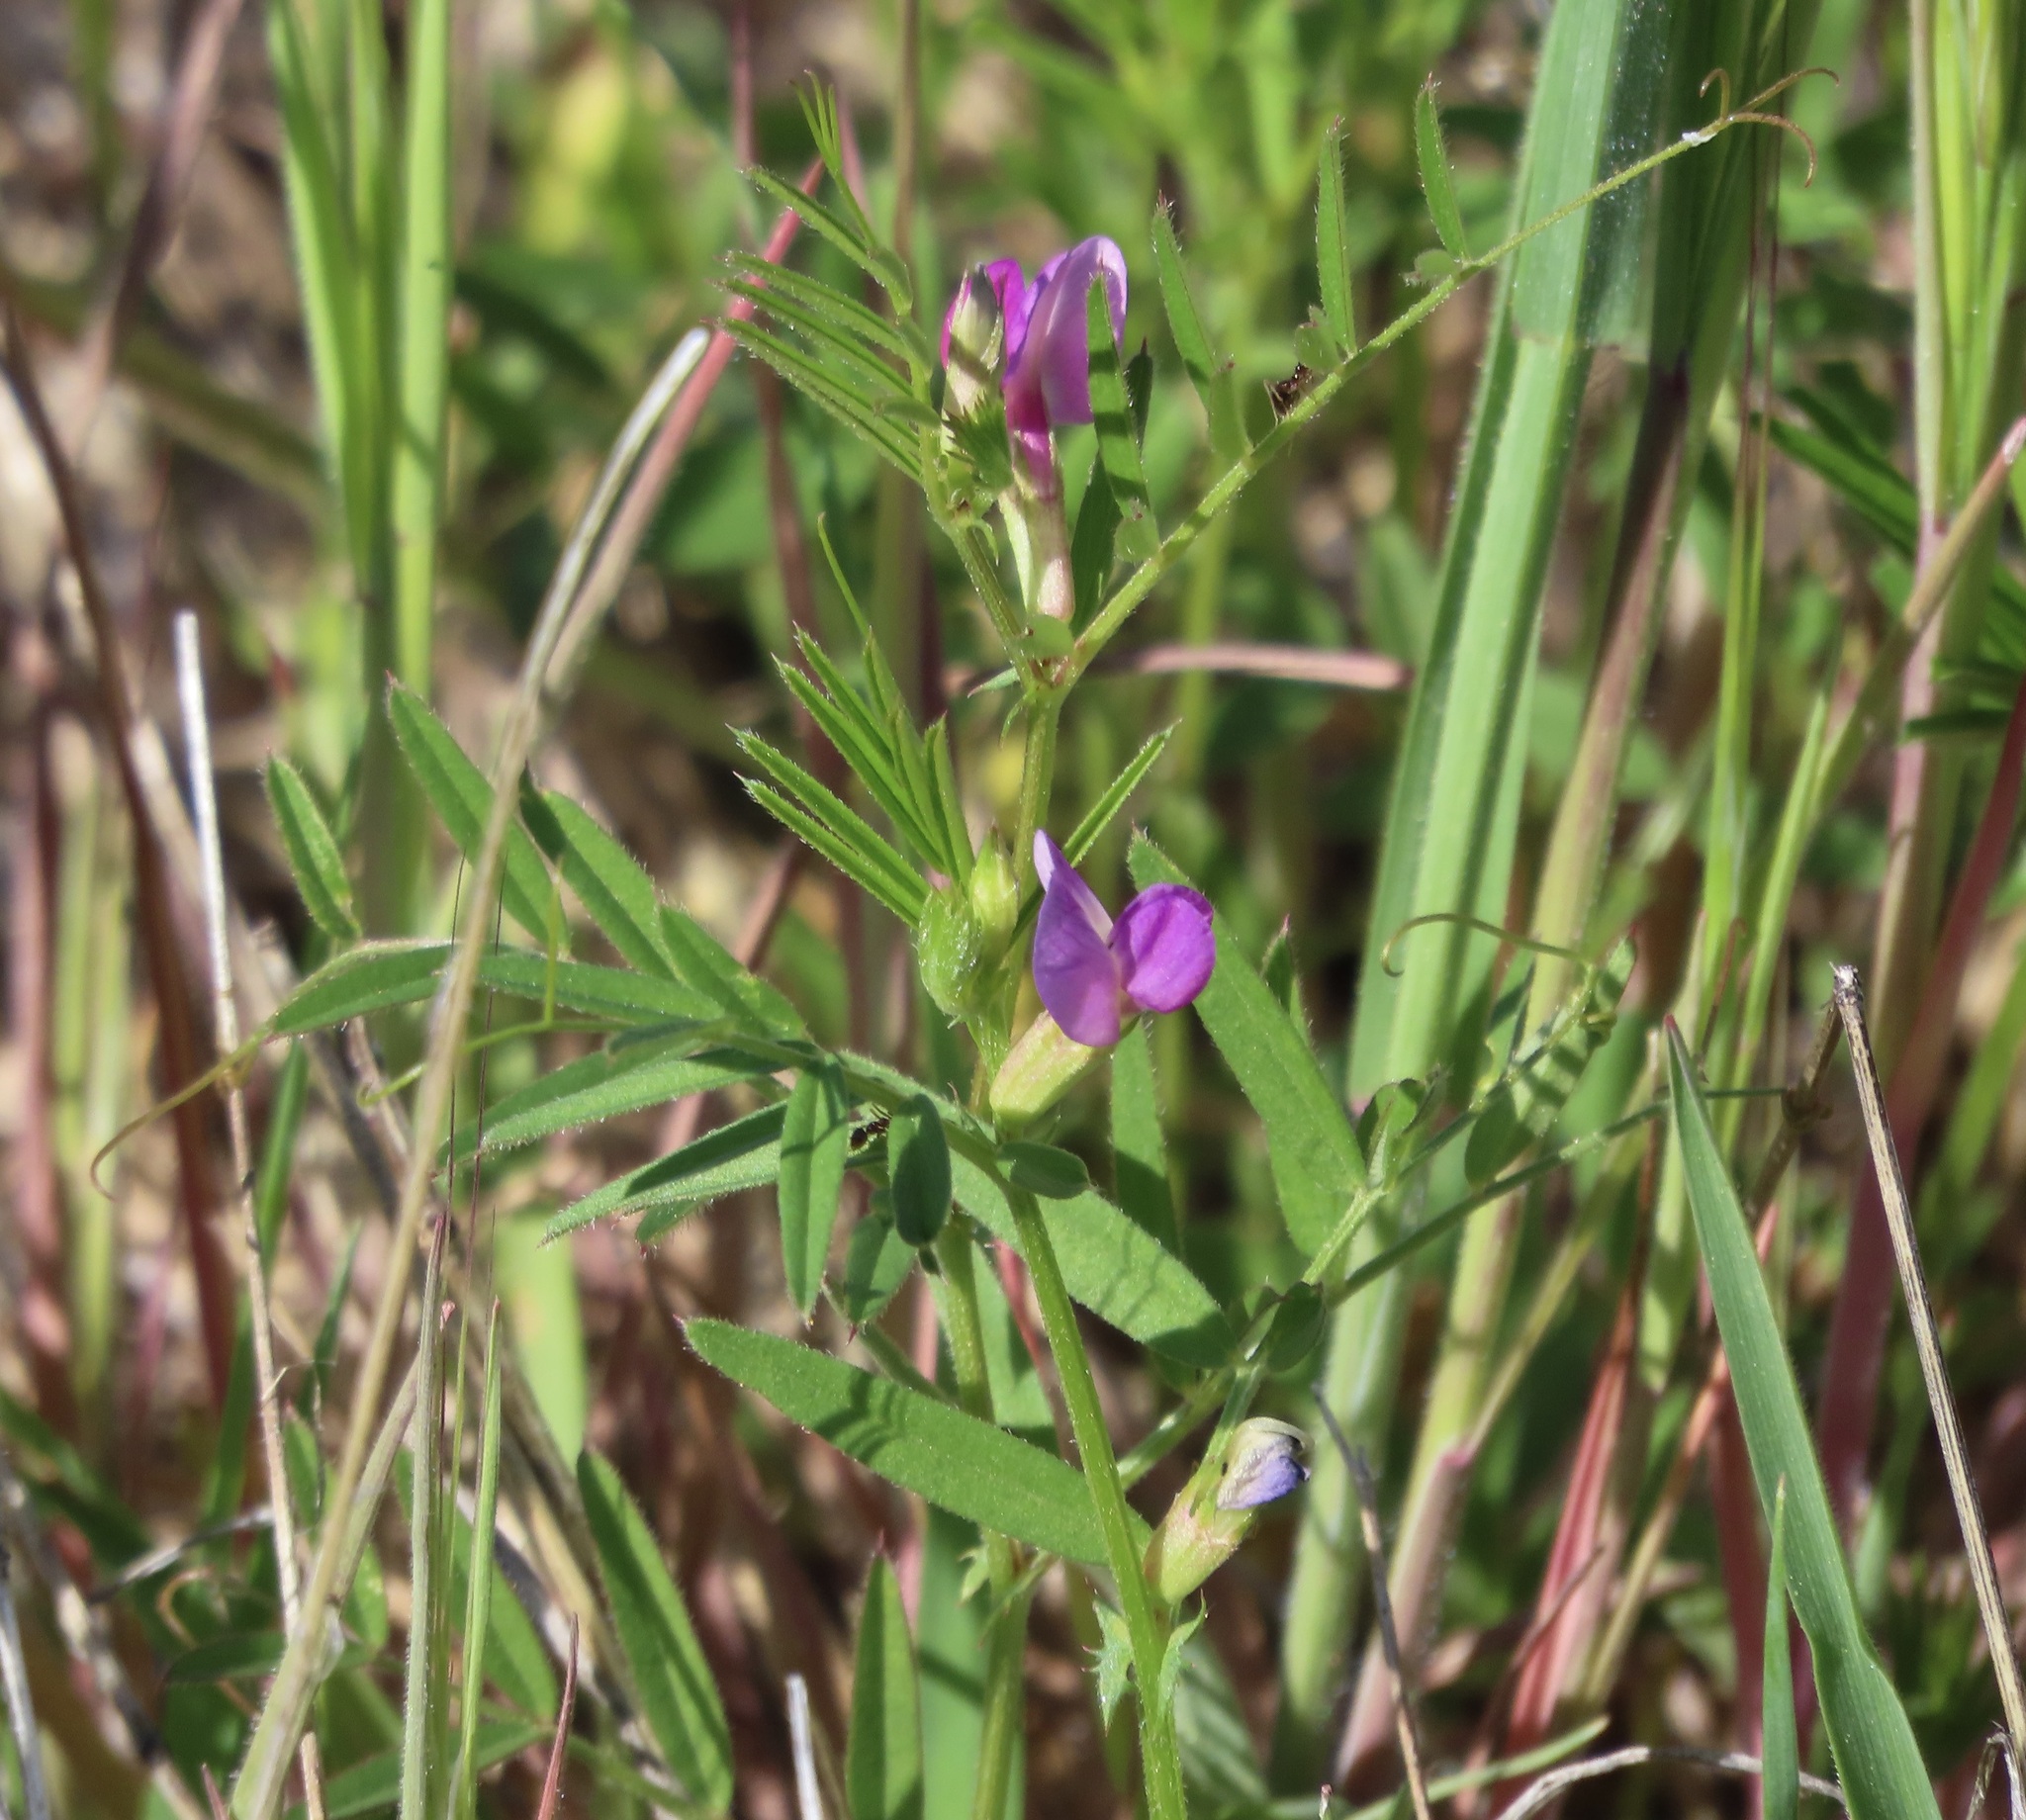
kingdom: Plantae
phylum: Tracheophyta
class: Magnoliopsida
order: Fabales
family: Fabaceae
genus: Vicia
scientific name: Vicia sativa
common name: Garden vetch
